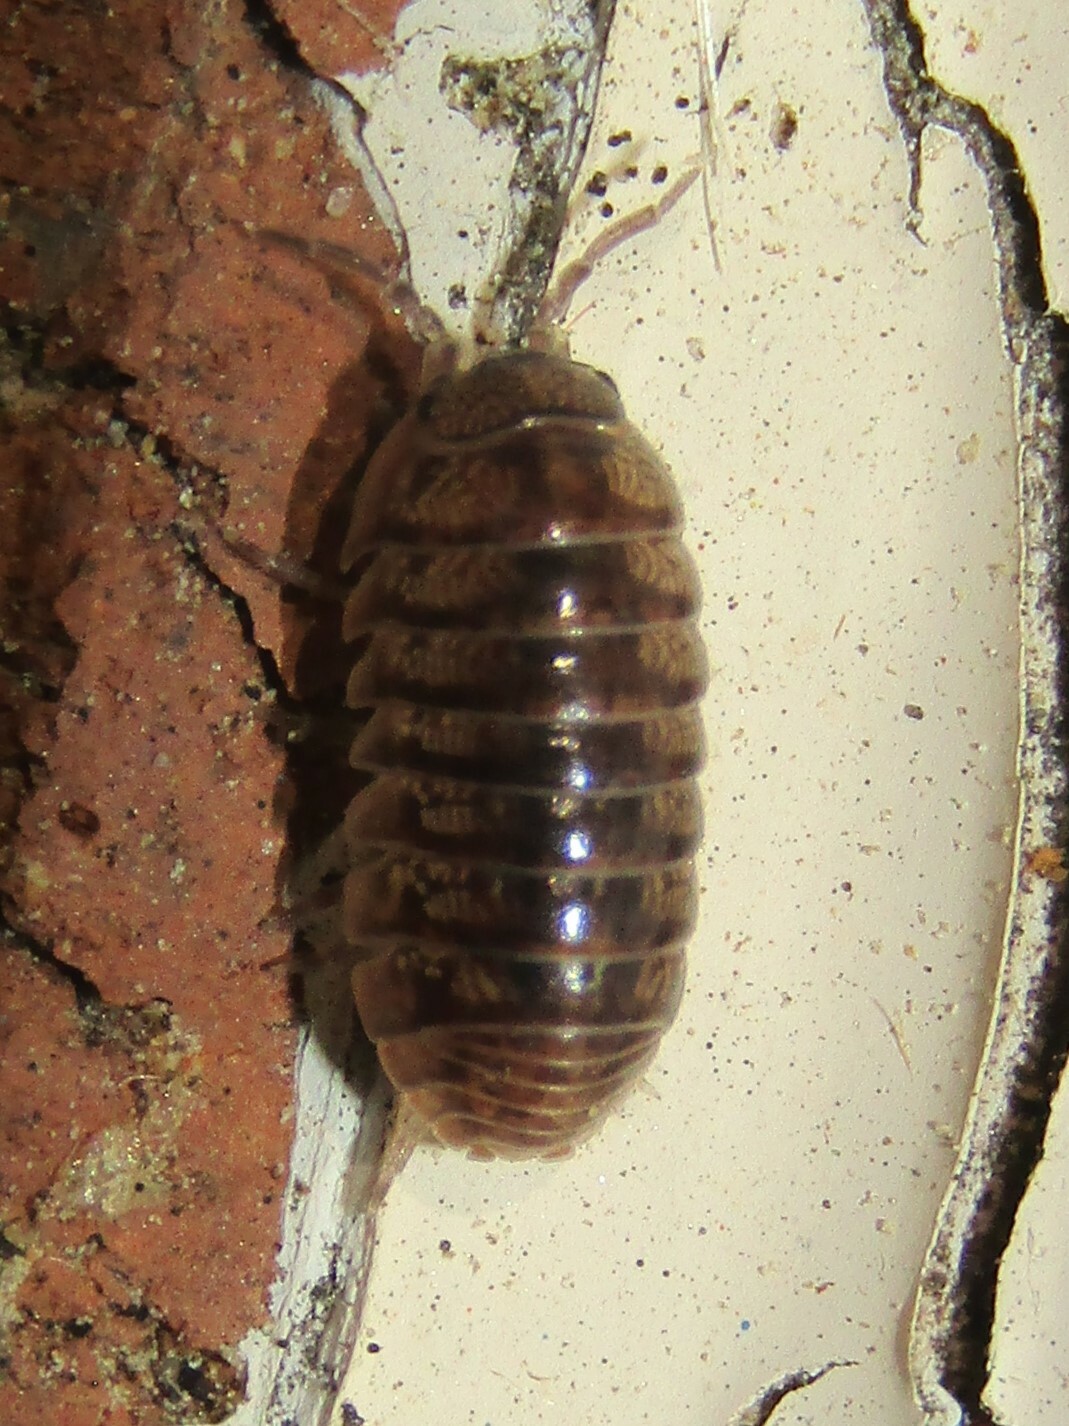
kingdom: Animalia
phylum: Arthropoda
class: Malacostraca
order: Isopoda
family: Armadillidiidae
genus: Armadillidium
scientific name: Armadillidium vulgare
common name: Common pill woodlouse
